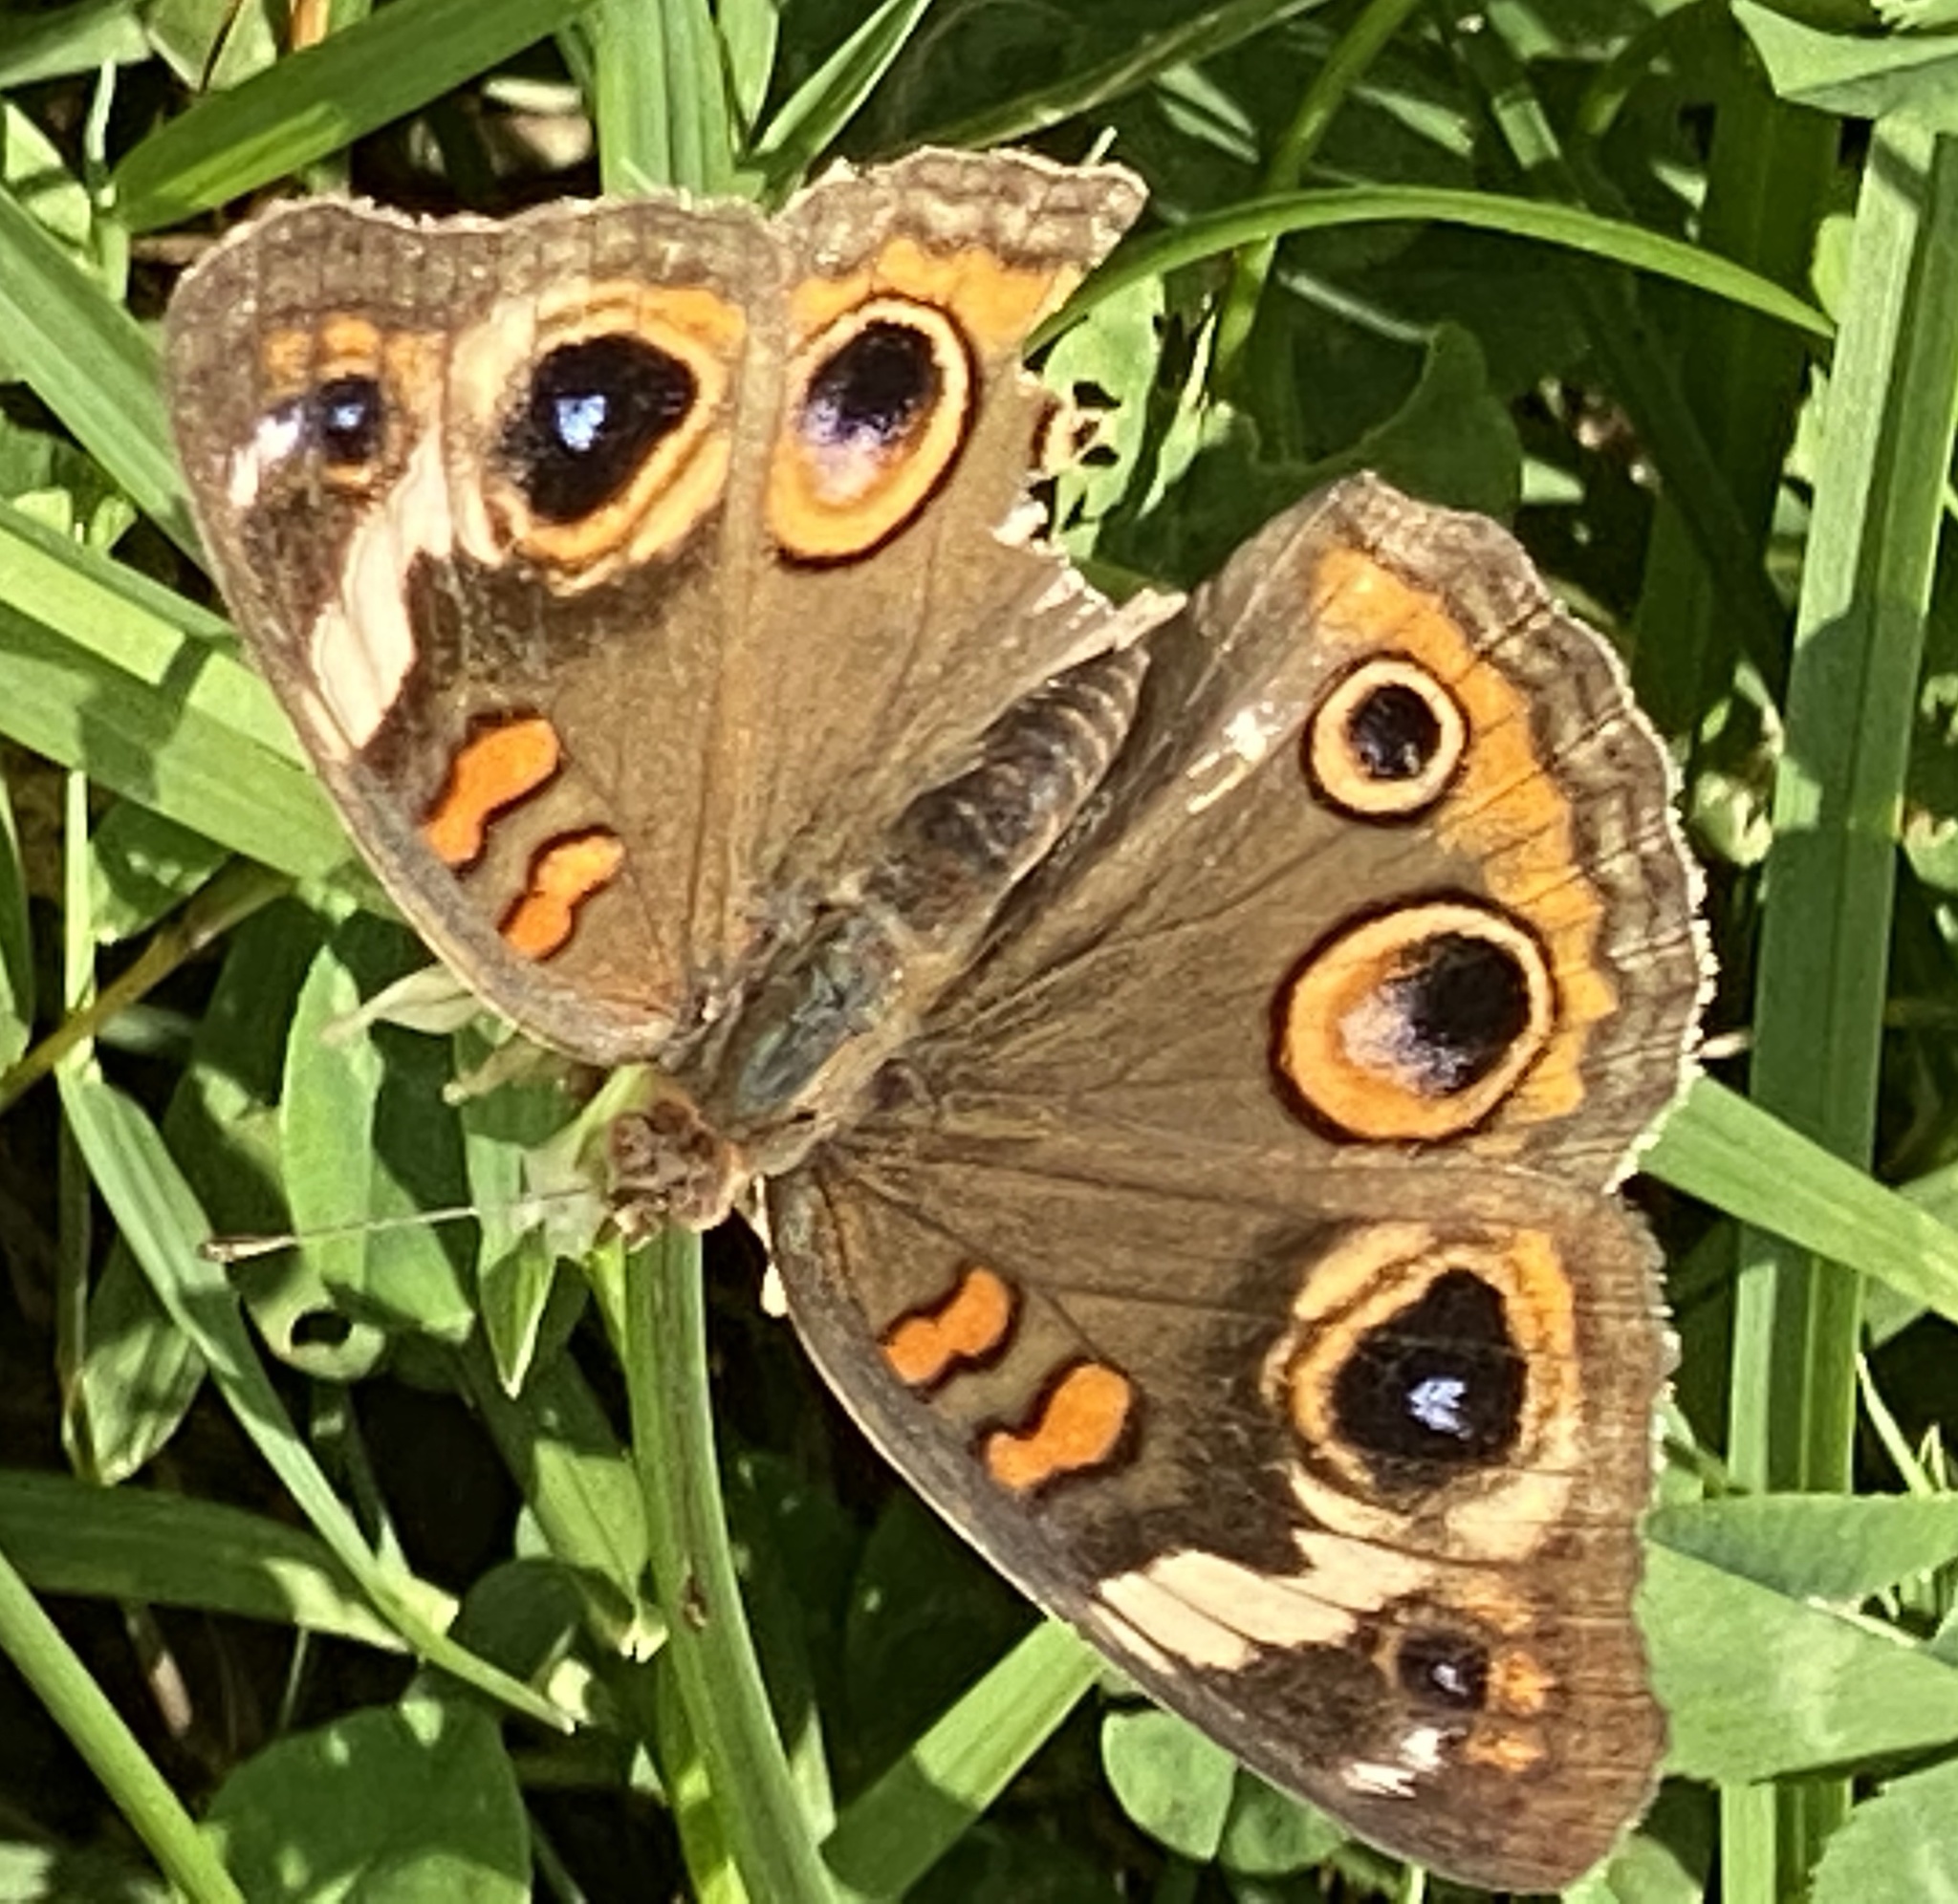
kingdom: Animalia
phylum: Arthropoda
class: Insecta
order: Lepidoptera
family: Nymphalidae
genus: Junonia
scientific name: Junonia coenia
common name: Common buckeye
